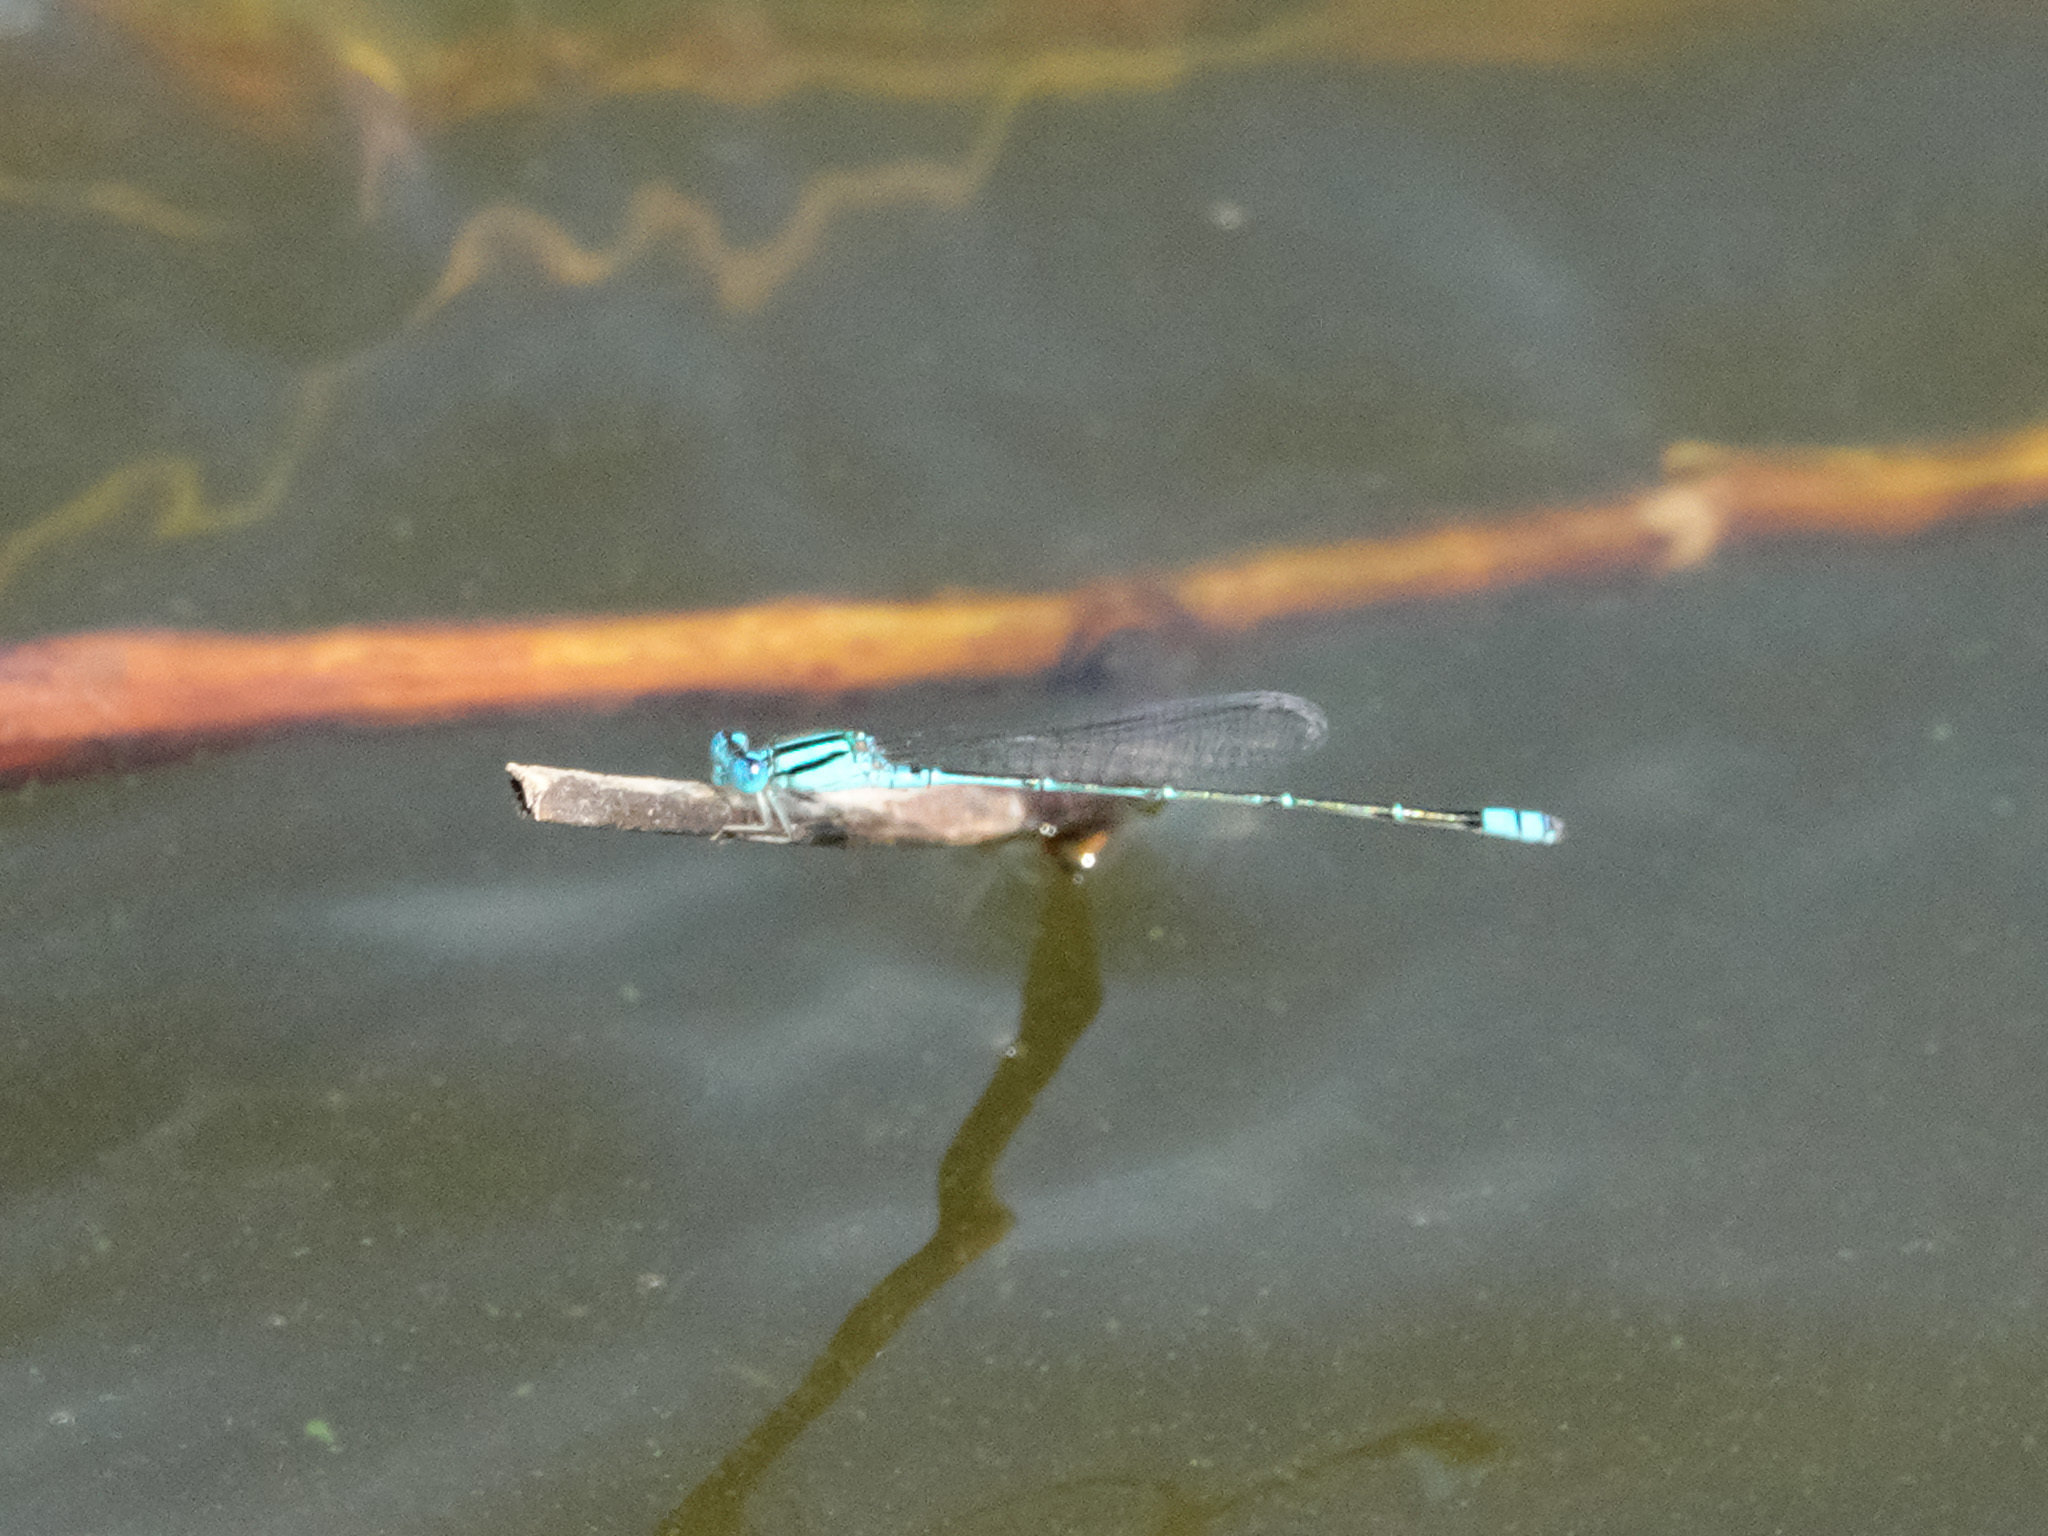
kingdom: Animalia
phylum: Arthropoda
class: Insecta
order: Odonata
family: Coenagrionidae
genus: Pseudagrion
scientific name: Pseudagrion microcephalum
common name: Blue riverdamsel
